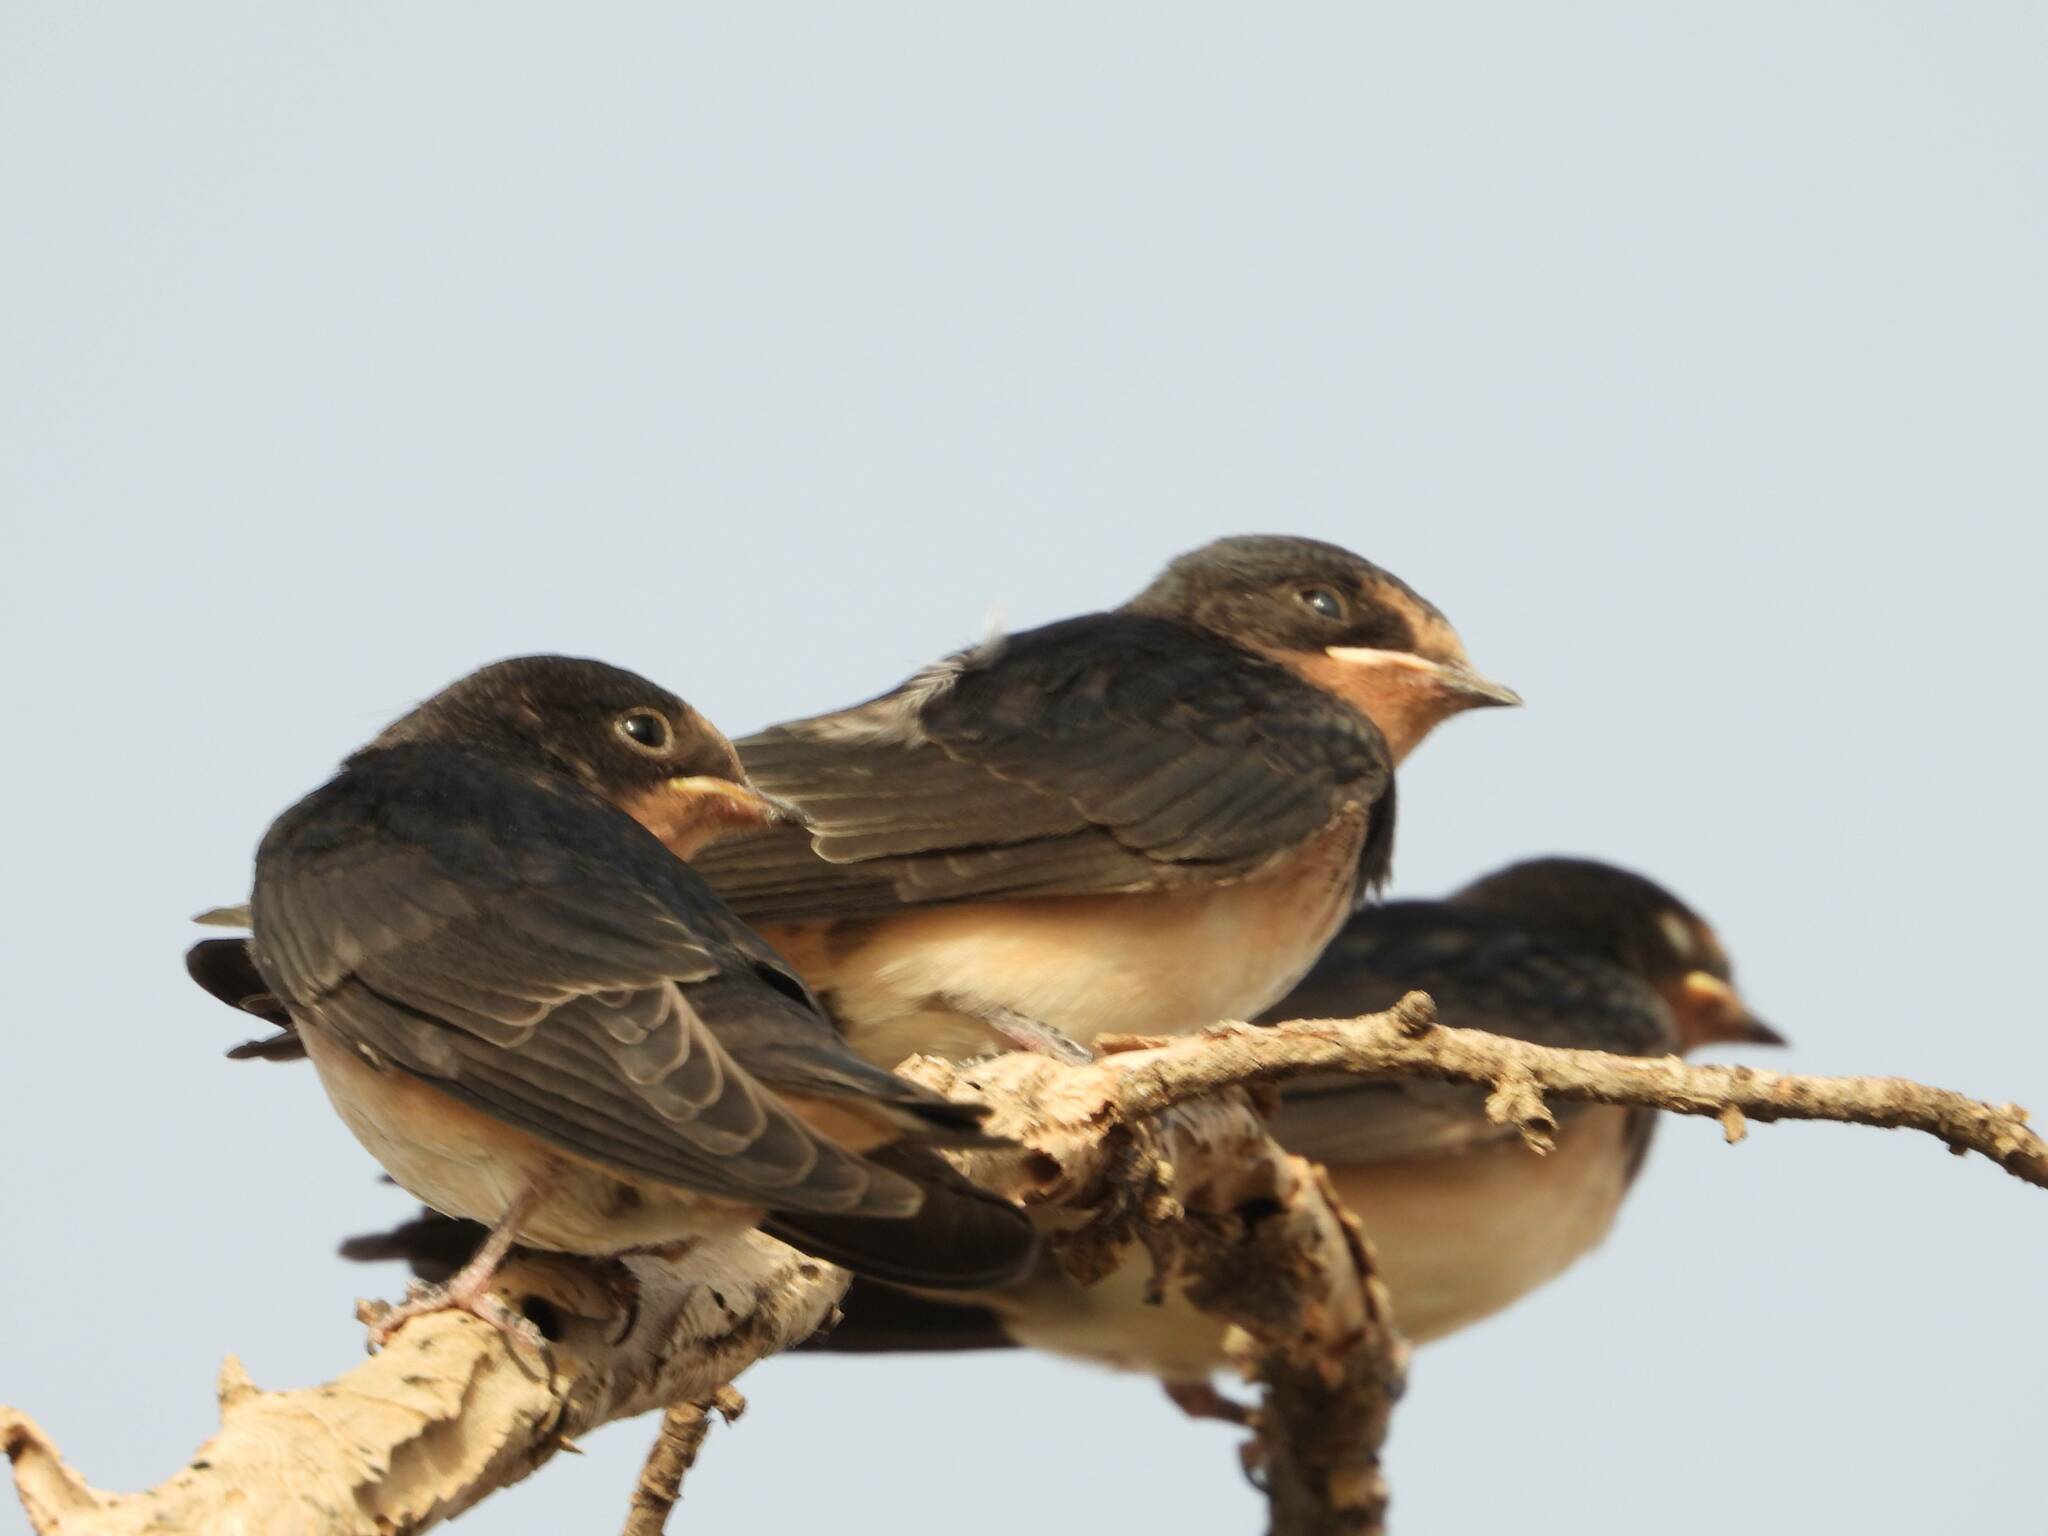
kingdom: Animalia
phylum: Chordata
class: Aves
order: Passeriformes
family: Hirundinidae
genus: Hirundo
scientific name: Hirundo rustica
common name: Barn swallow
